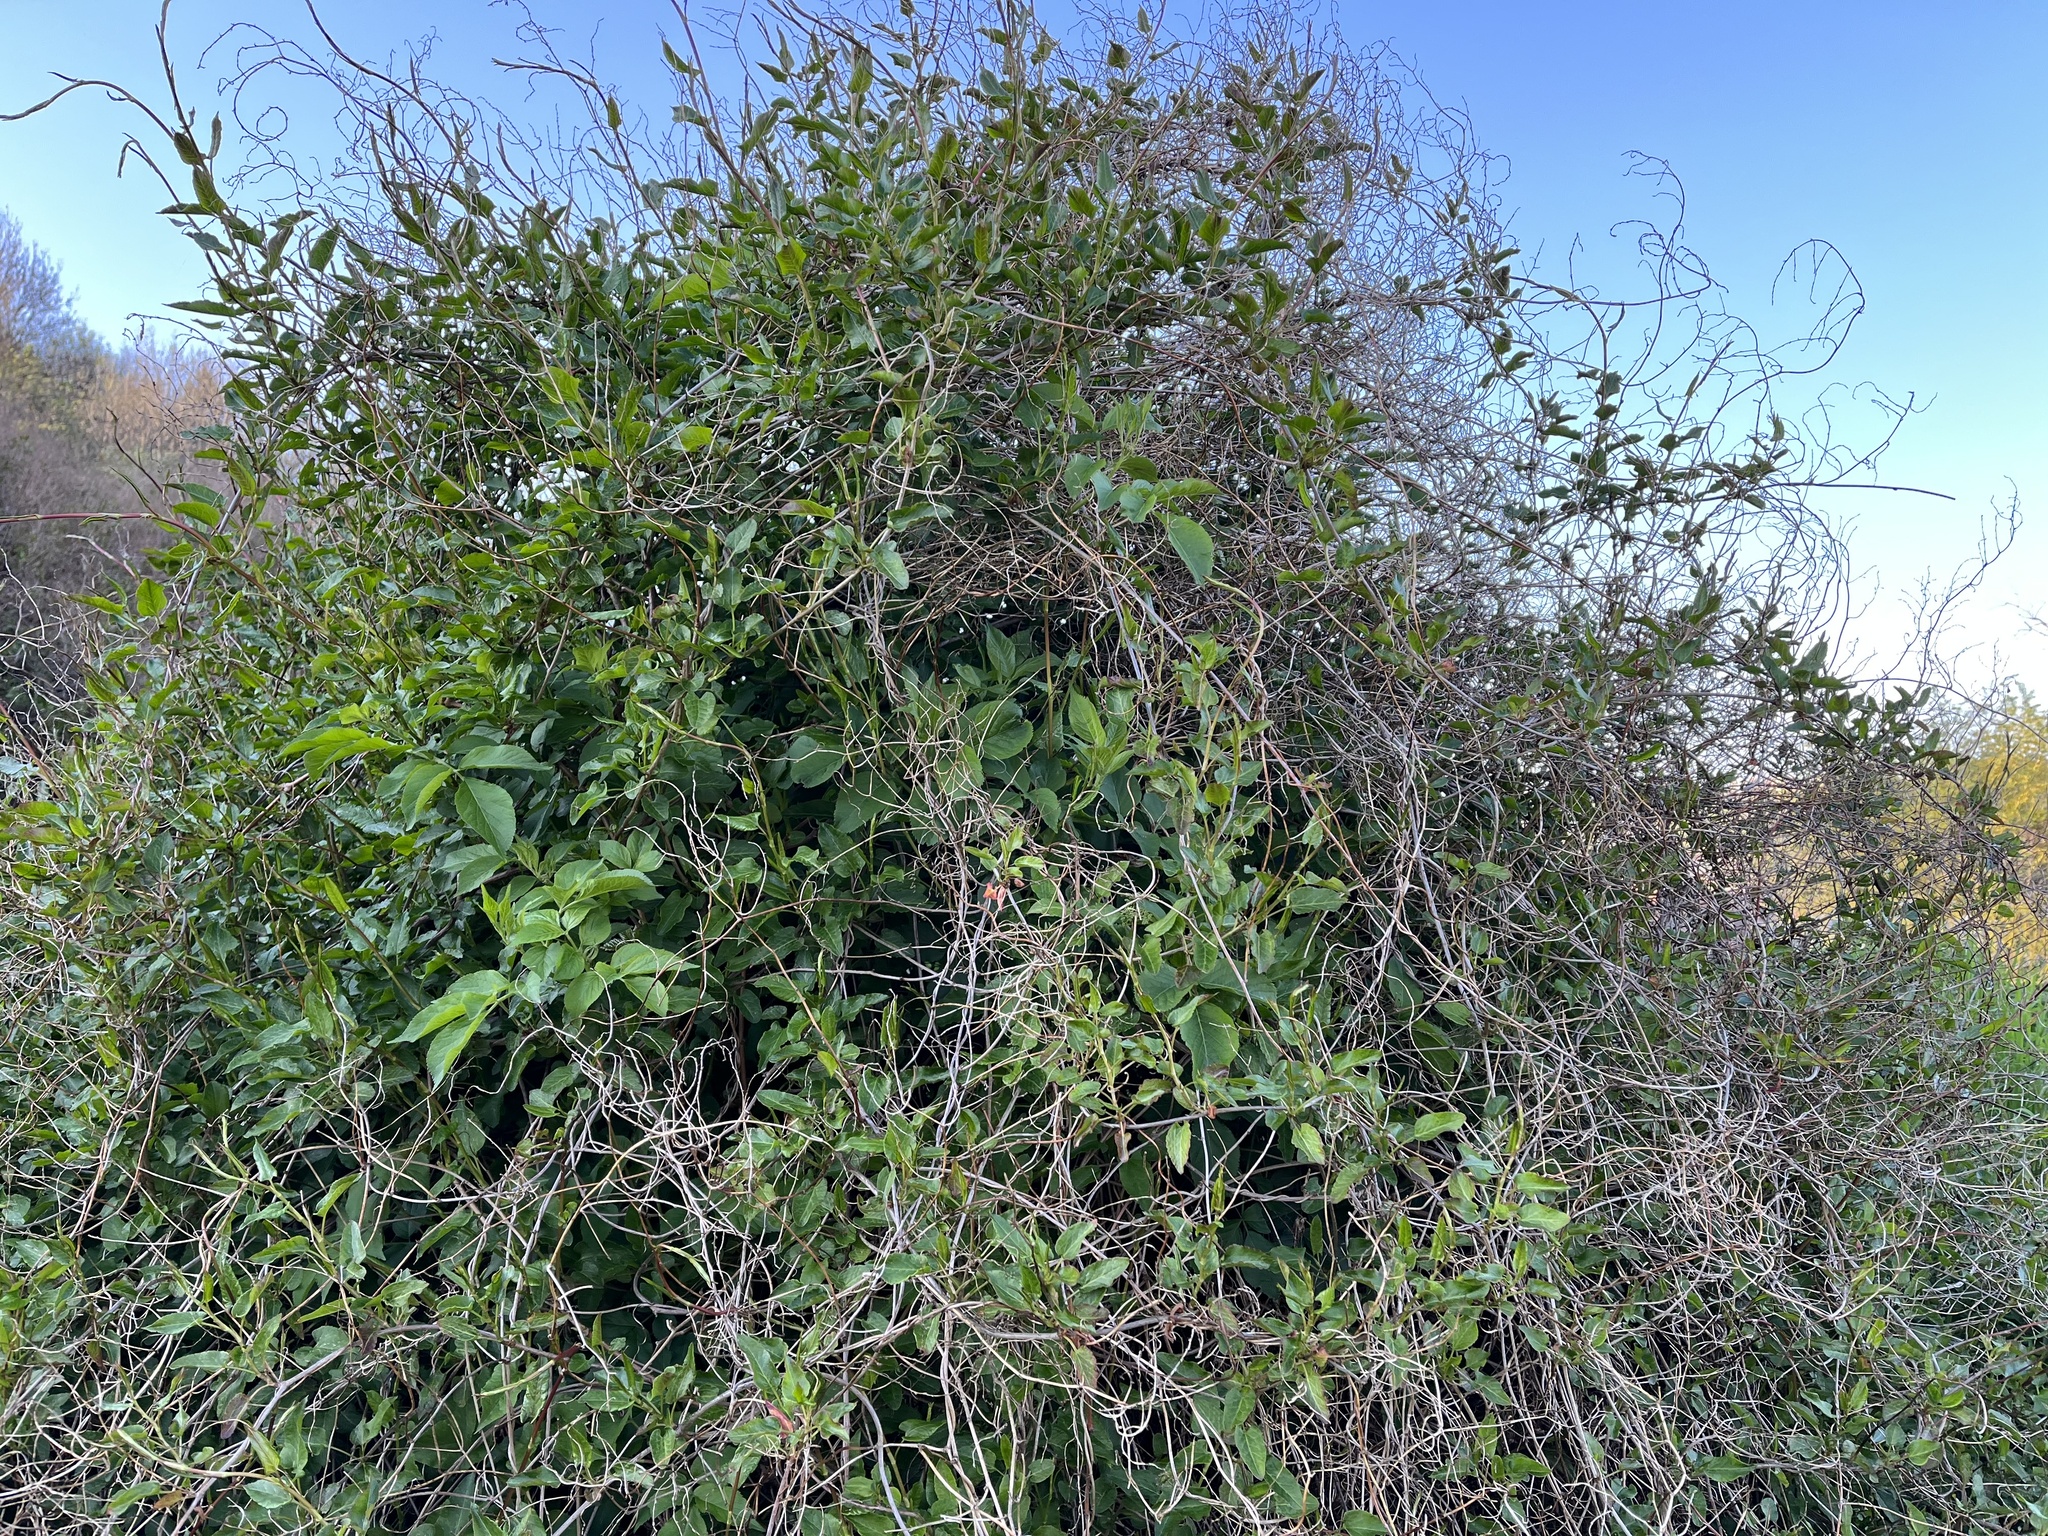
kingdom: Plantae
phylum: Tracheophyta
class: Magnoliopsida
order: Caryophyllales
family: Polygonaceae
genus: Fallopia
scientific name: Fallopia baldschuanica
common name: Russian-vine
